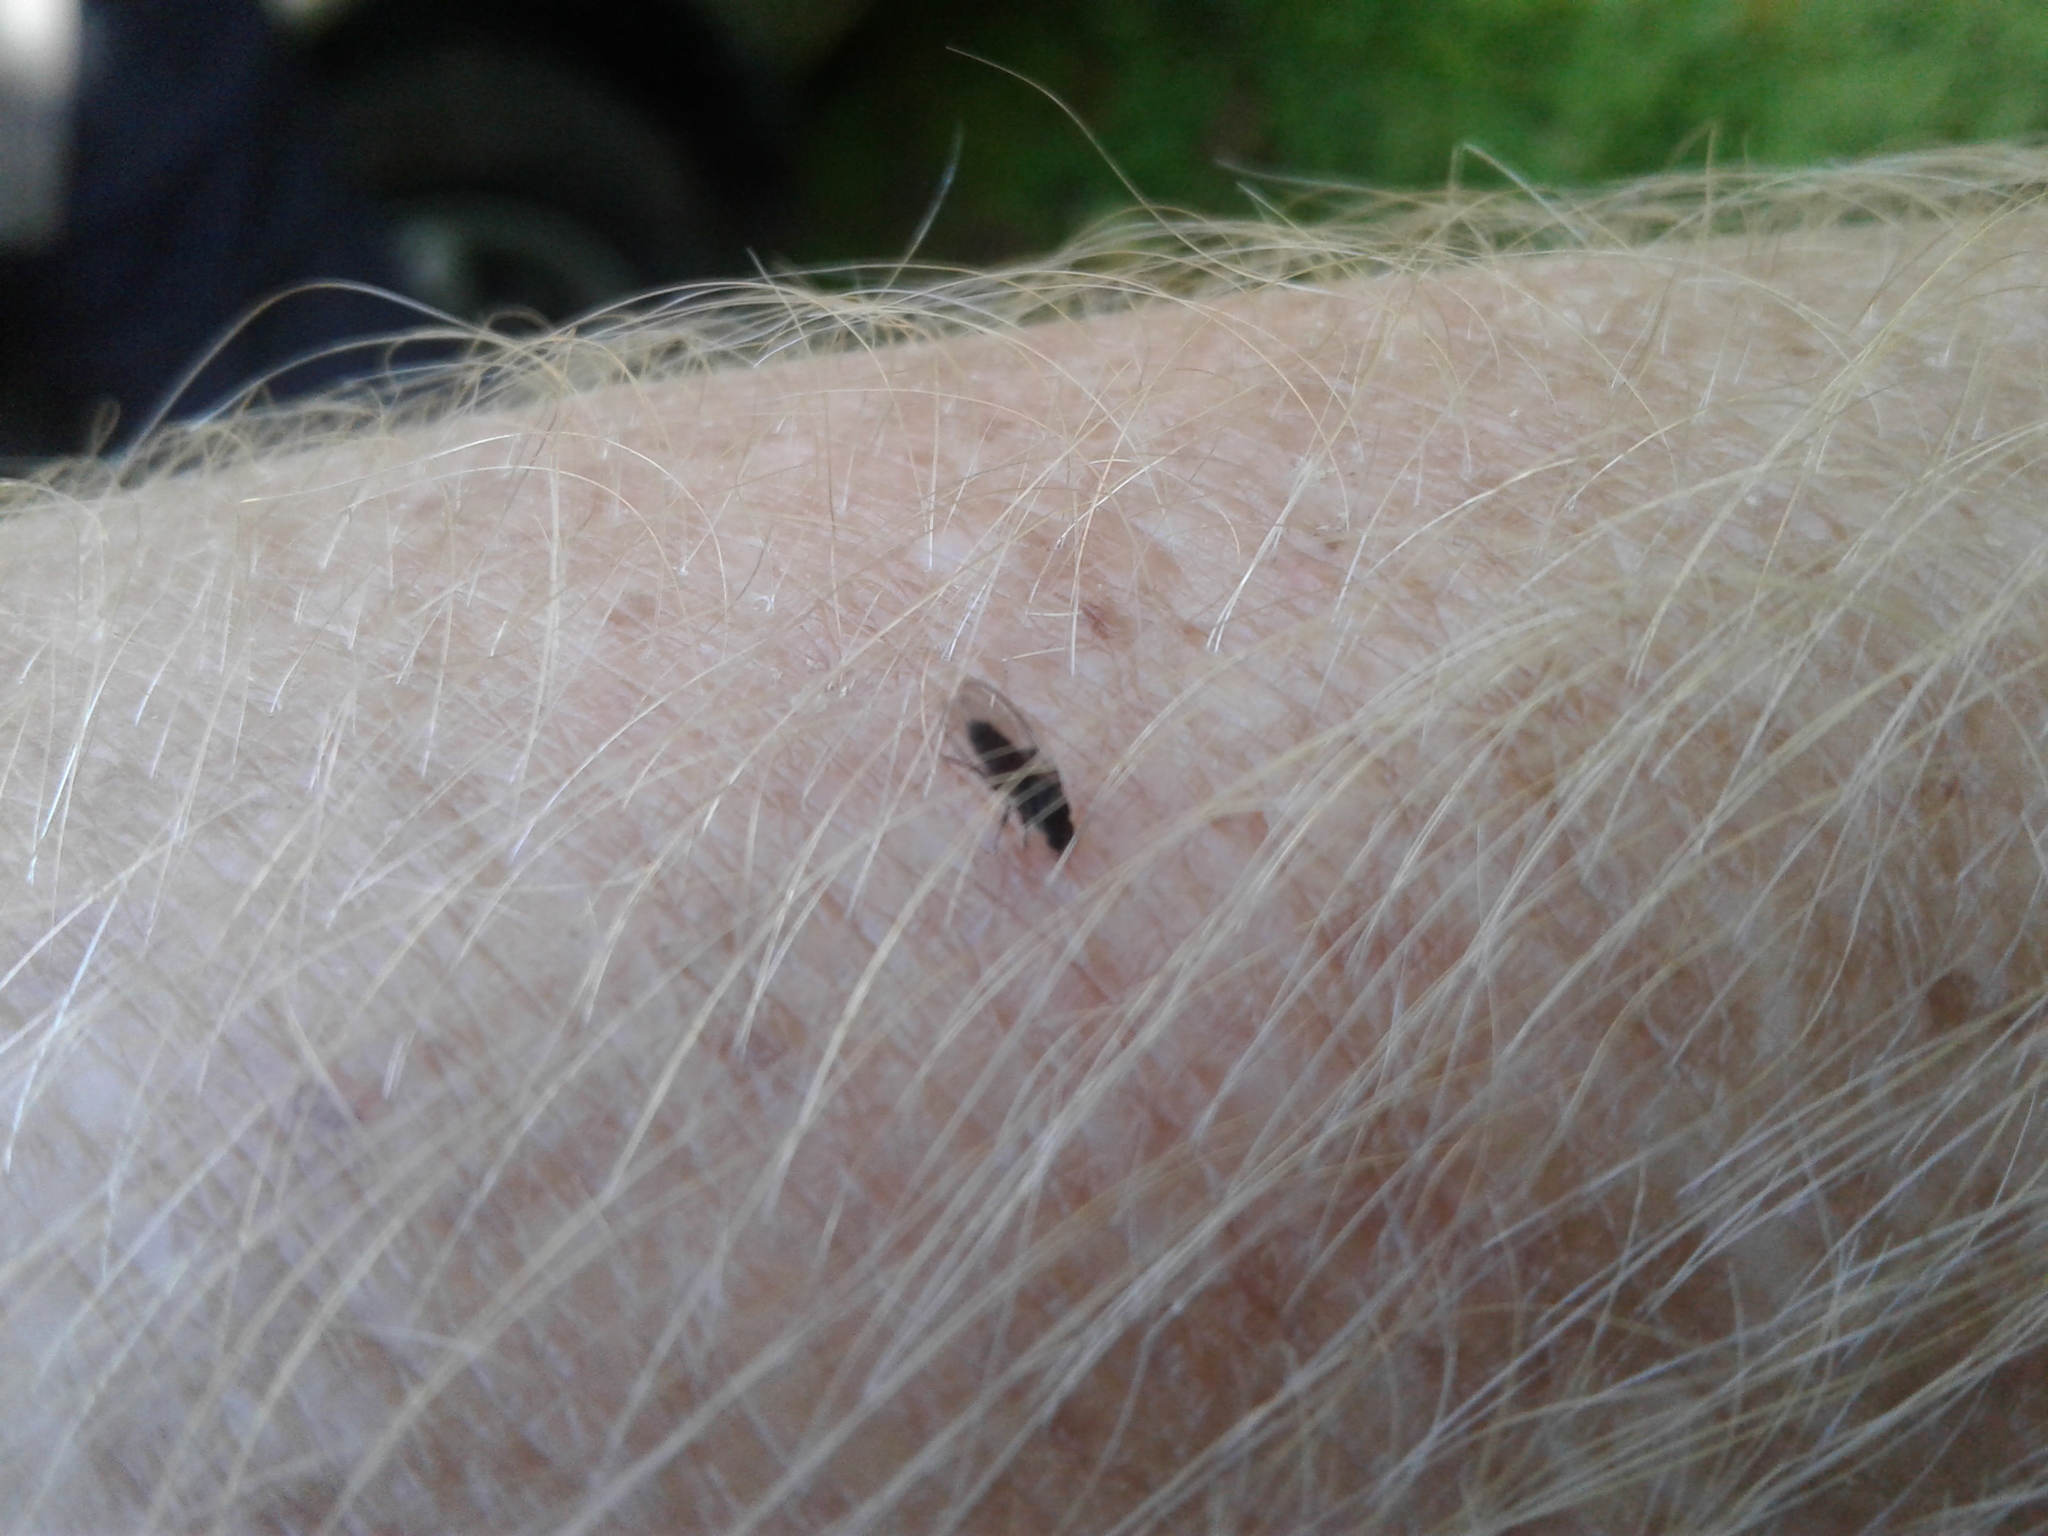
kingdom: Animalia
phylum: Arthropoda
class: Insecta
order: Diptera
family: Simuliidae
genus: Austrosimulium
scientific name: Austrosimulium
